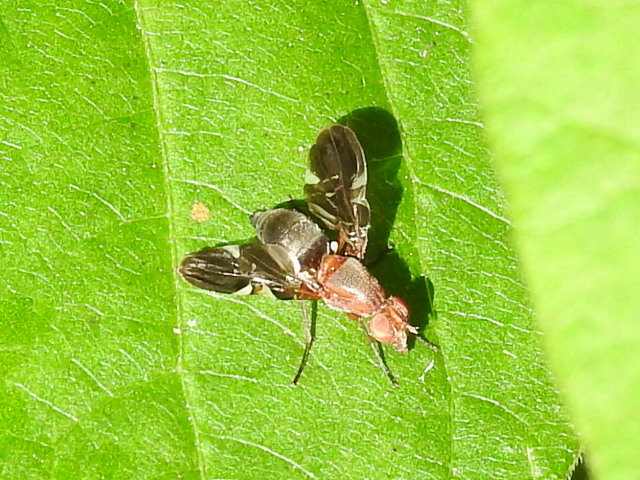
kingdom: Animalia
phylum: Arthropoda
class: Insecta
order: Diptera
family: Ulidiidae
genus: Delphinia
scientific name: Delphinia picta
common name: Common picture-winged fly
